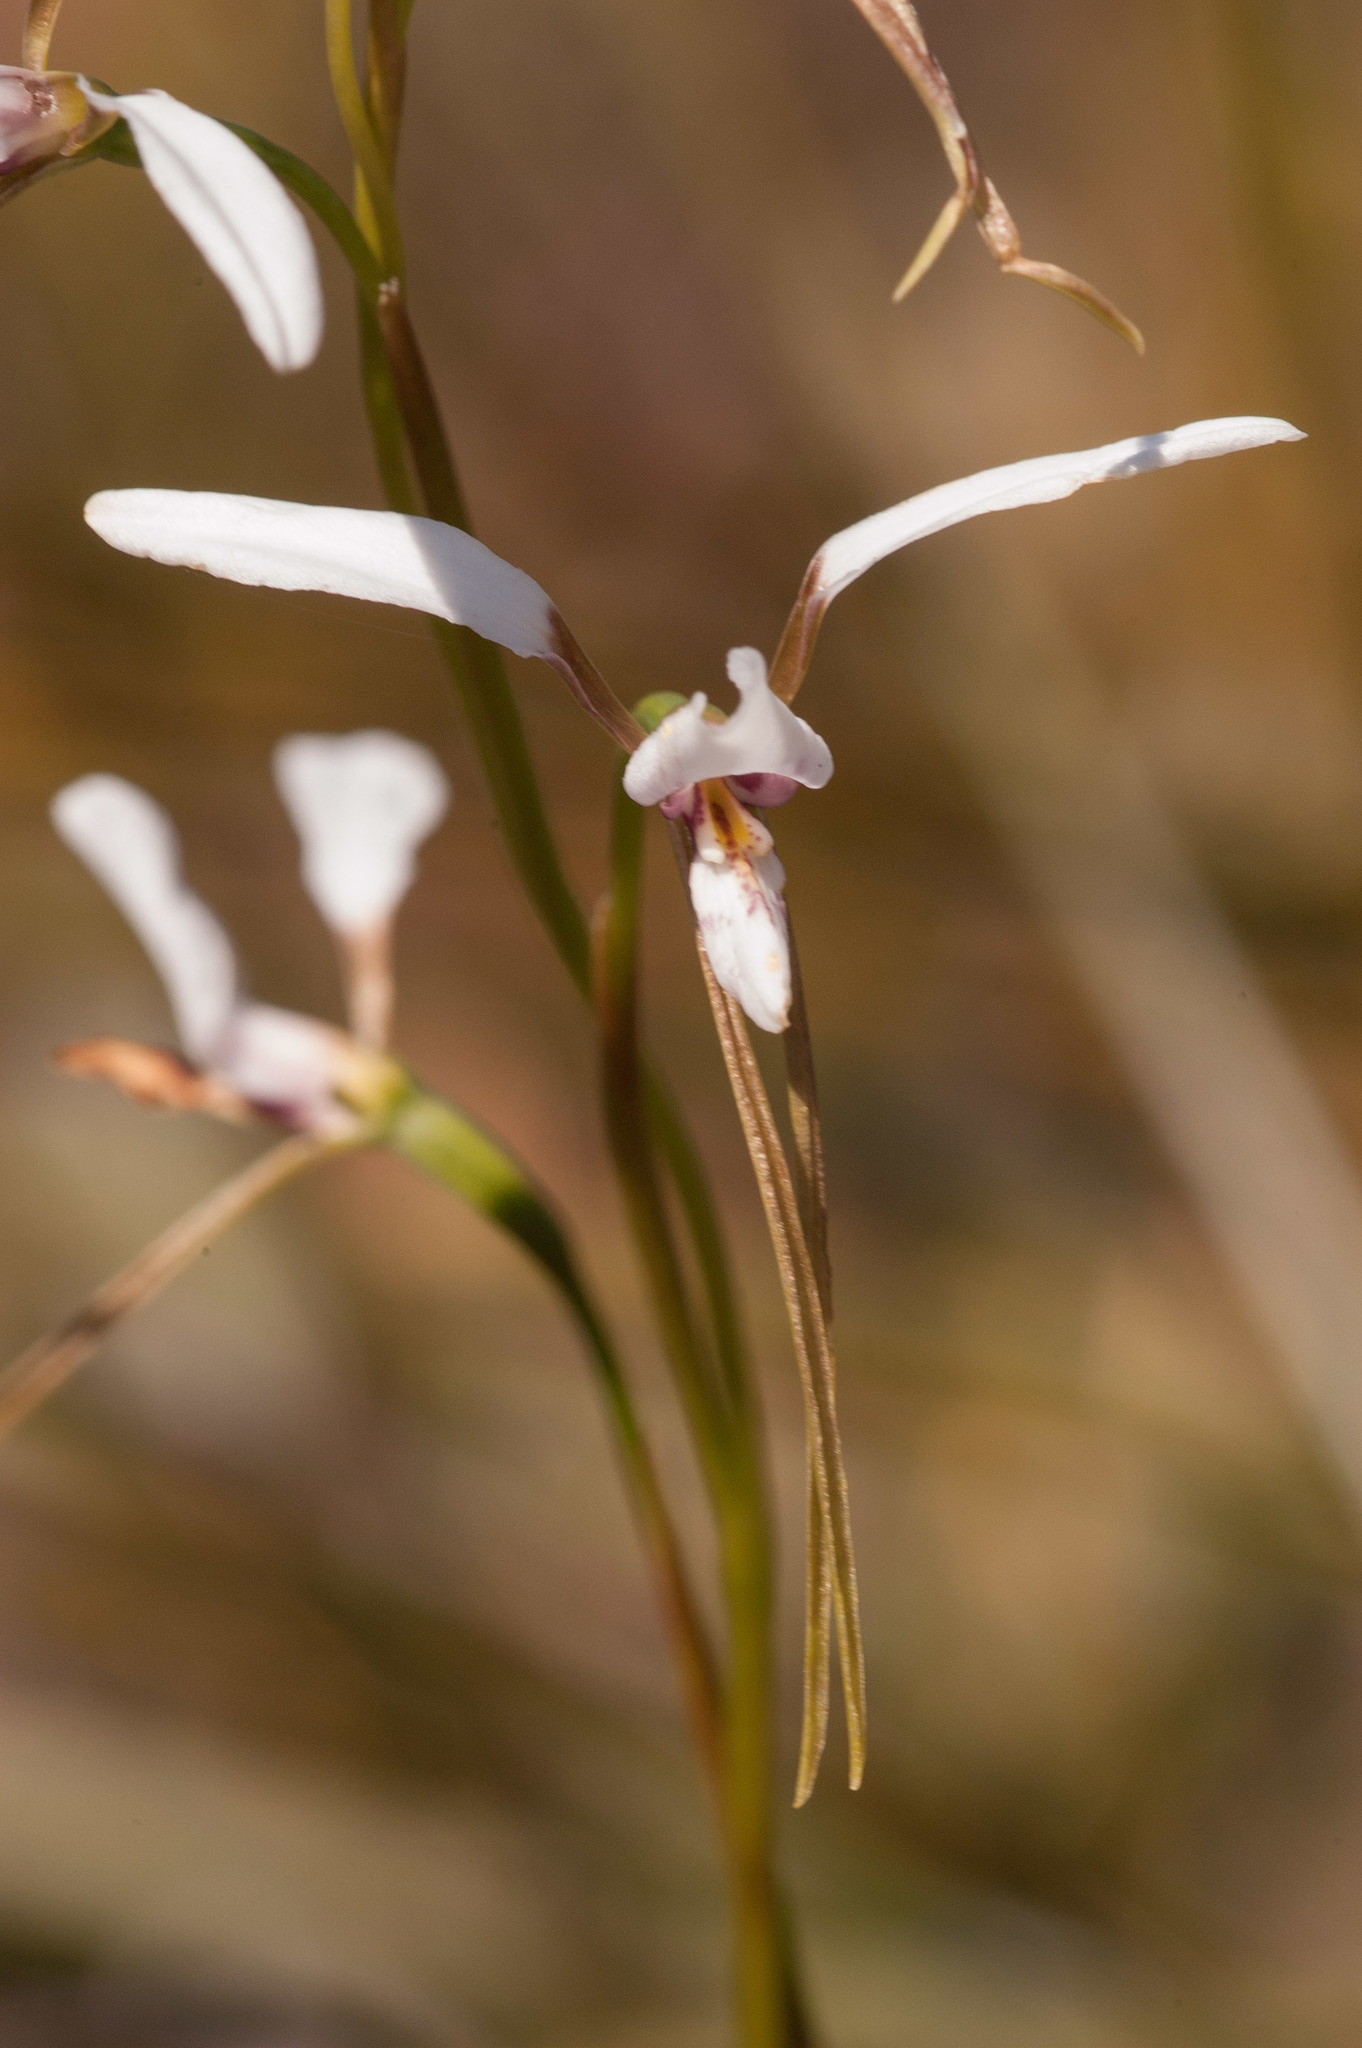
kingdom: Plantae
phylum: Tracheophyta
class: Liliopsida
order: Asparagales
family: Orchidaceae
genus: Diuris
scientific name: Diuris alba
